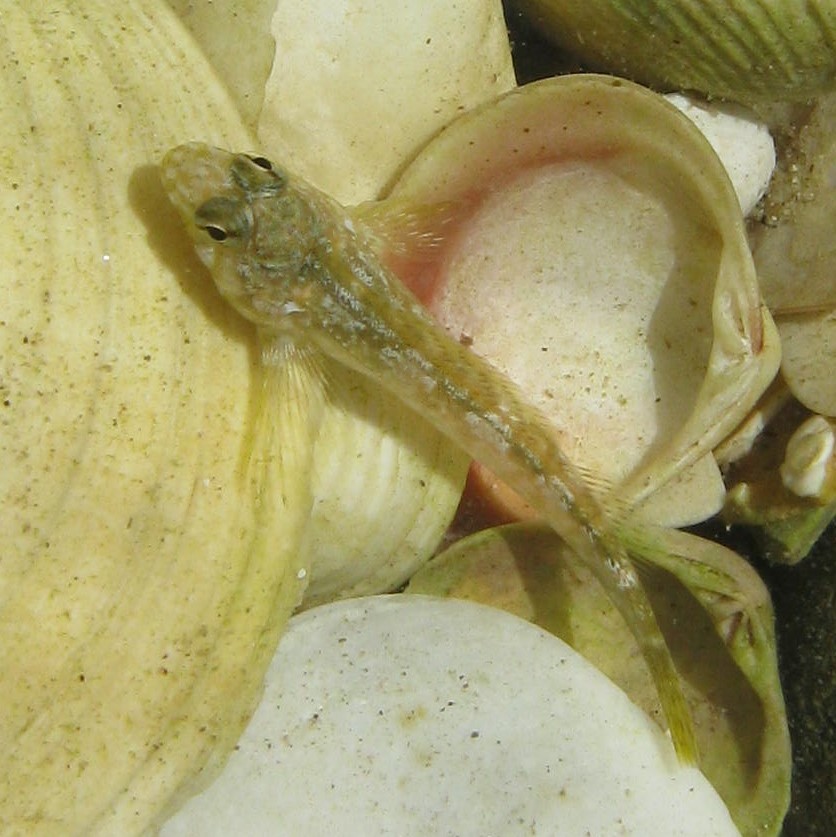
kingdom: Animalia
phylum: Chordata
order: Perciformes
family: Tripterygiidae
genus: Bellapiscis
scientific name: Bellapiscis medius
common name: Twister
